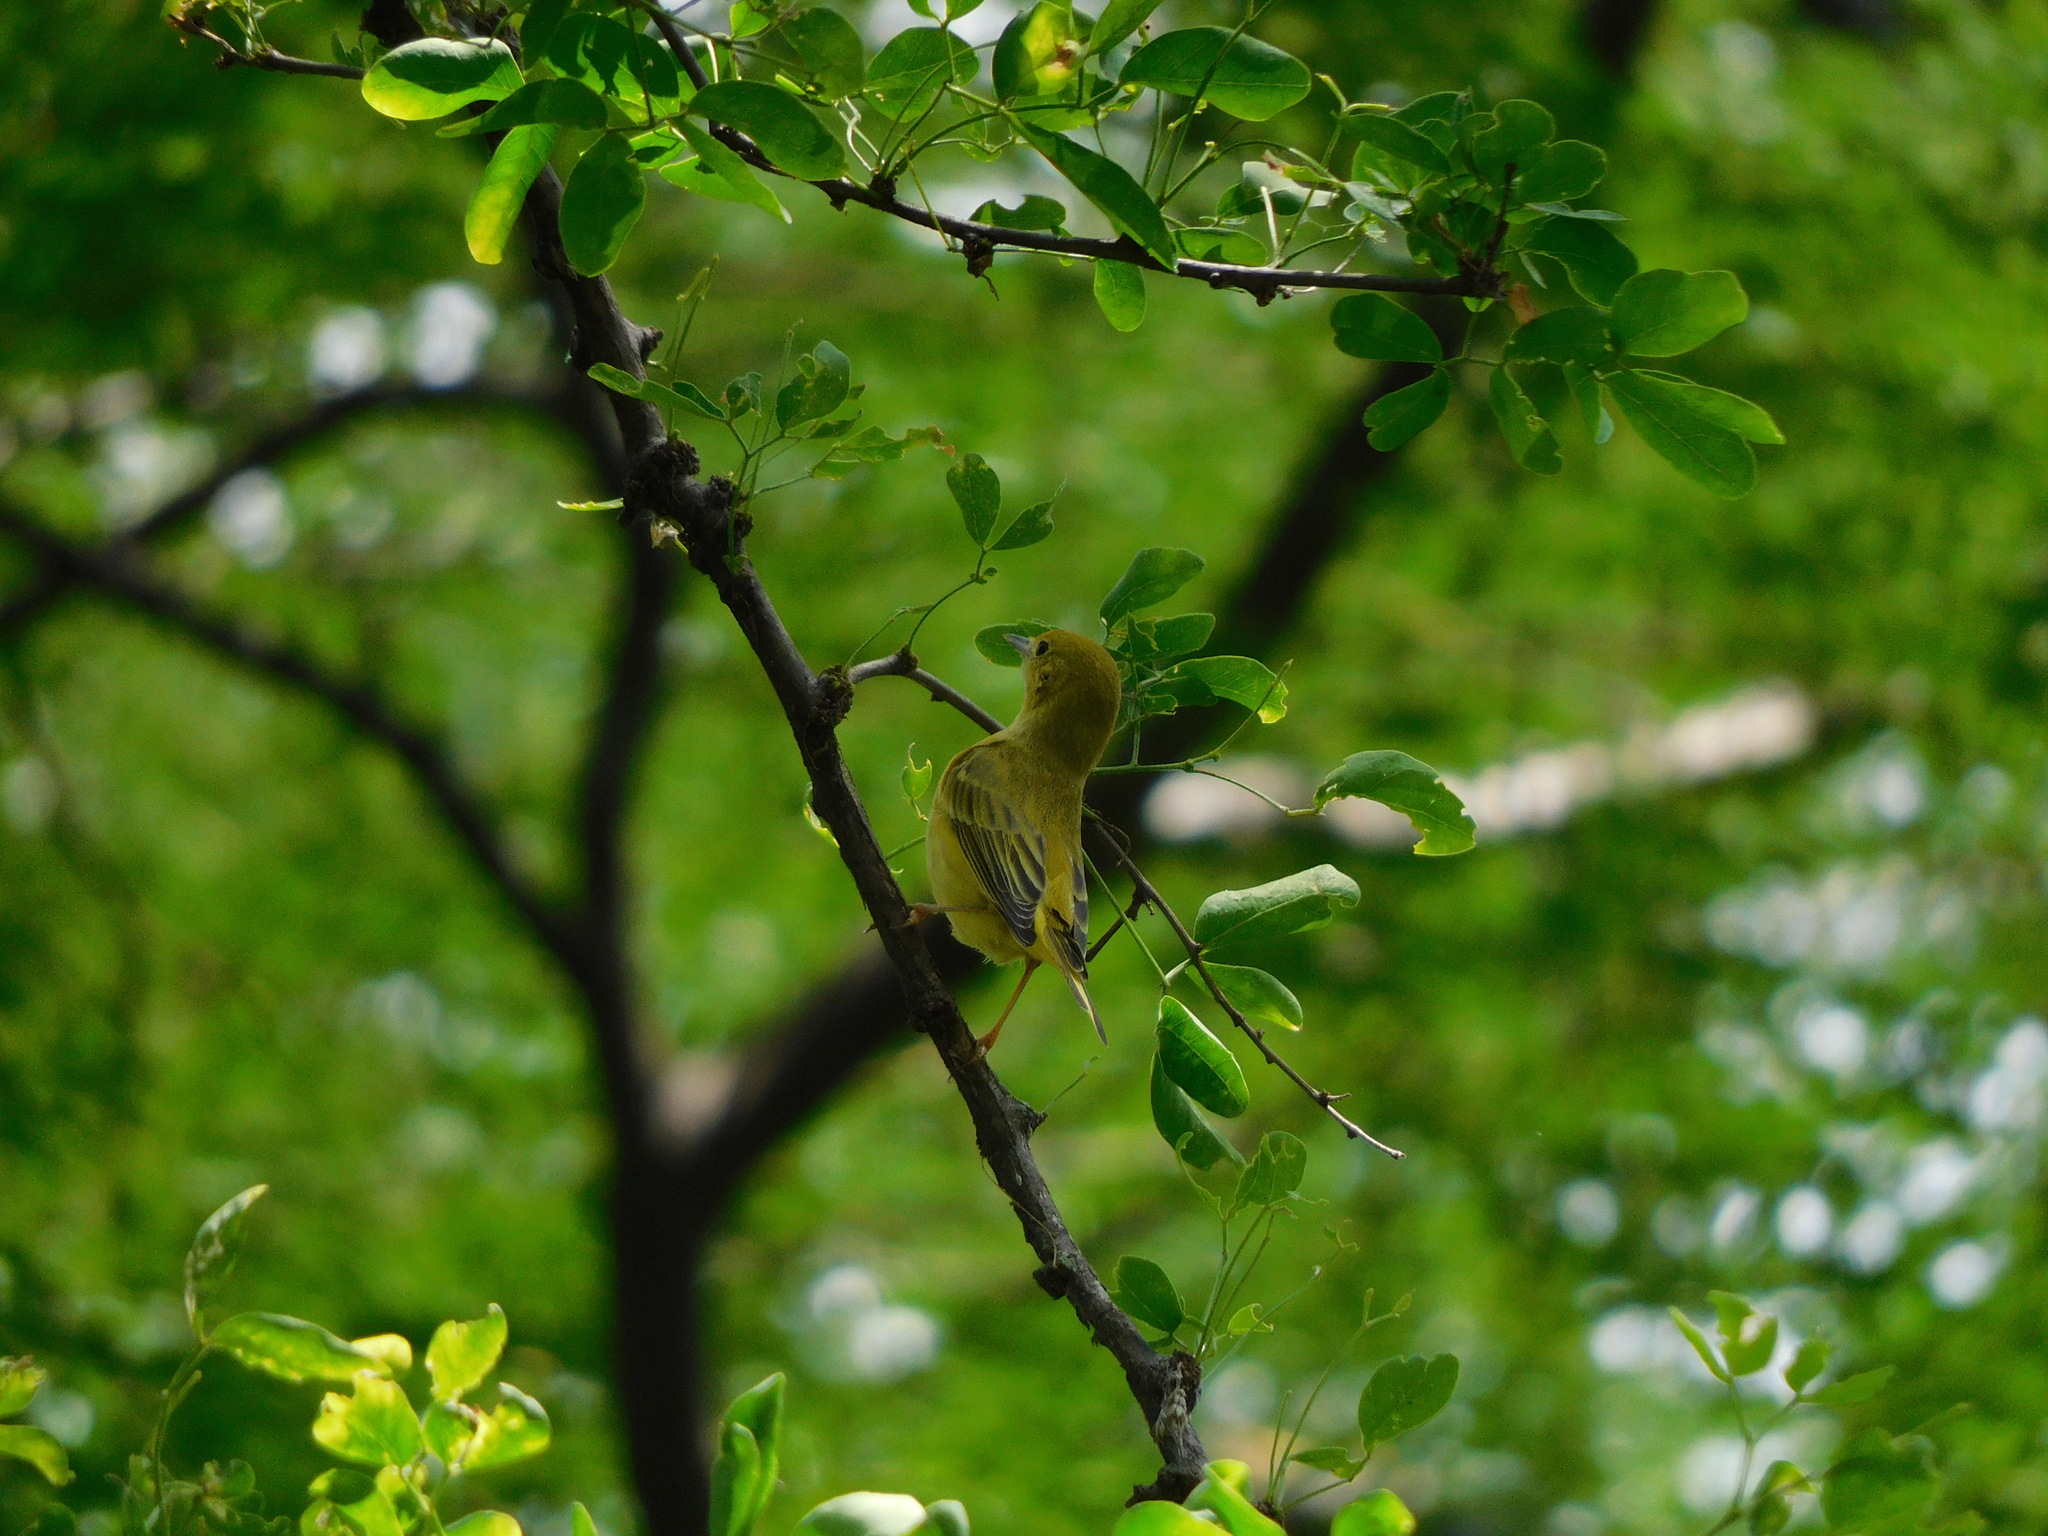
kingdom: Animalia
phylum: Chordata
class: Aves
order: Passeriformes
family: Parulidae
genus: Setophaga
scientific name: Setophaga petechia
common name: Yellow warbler
